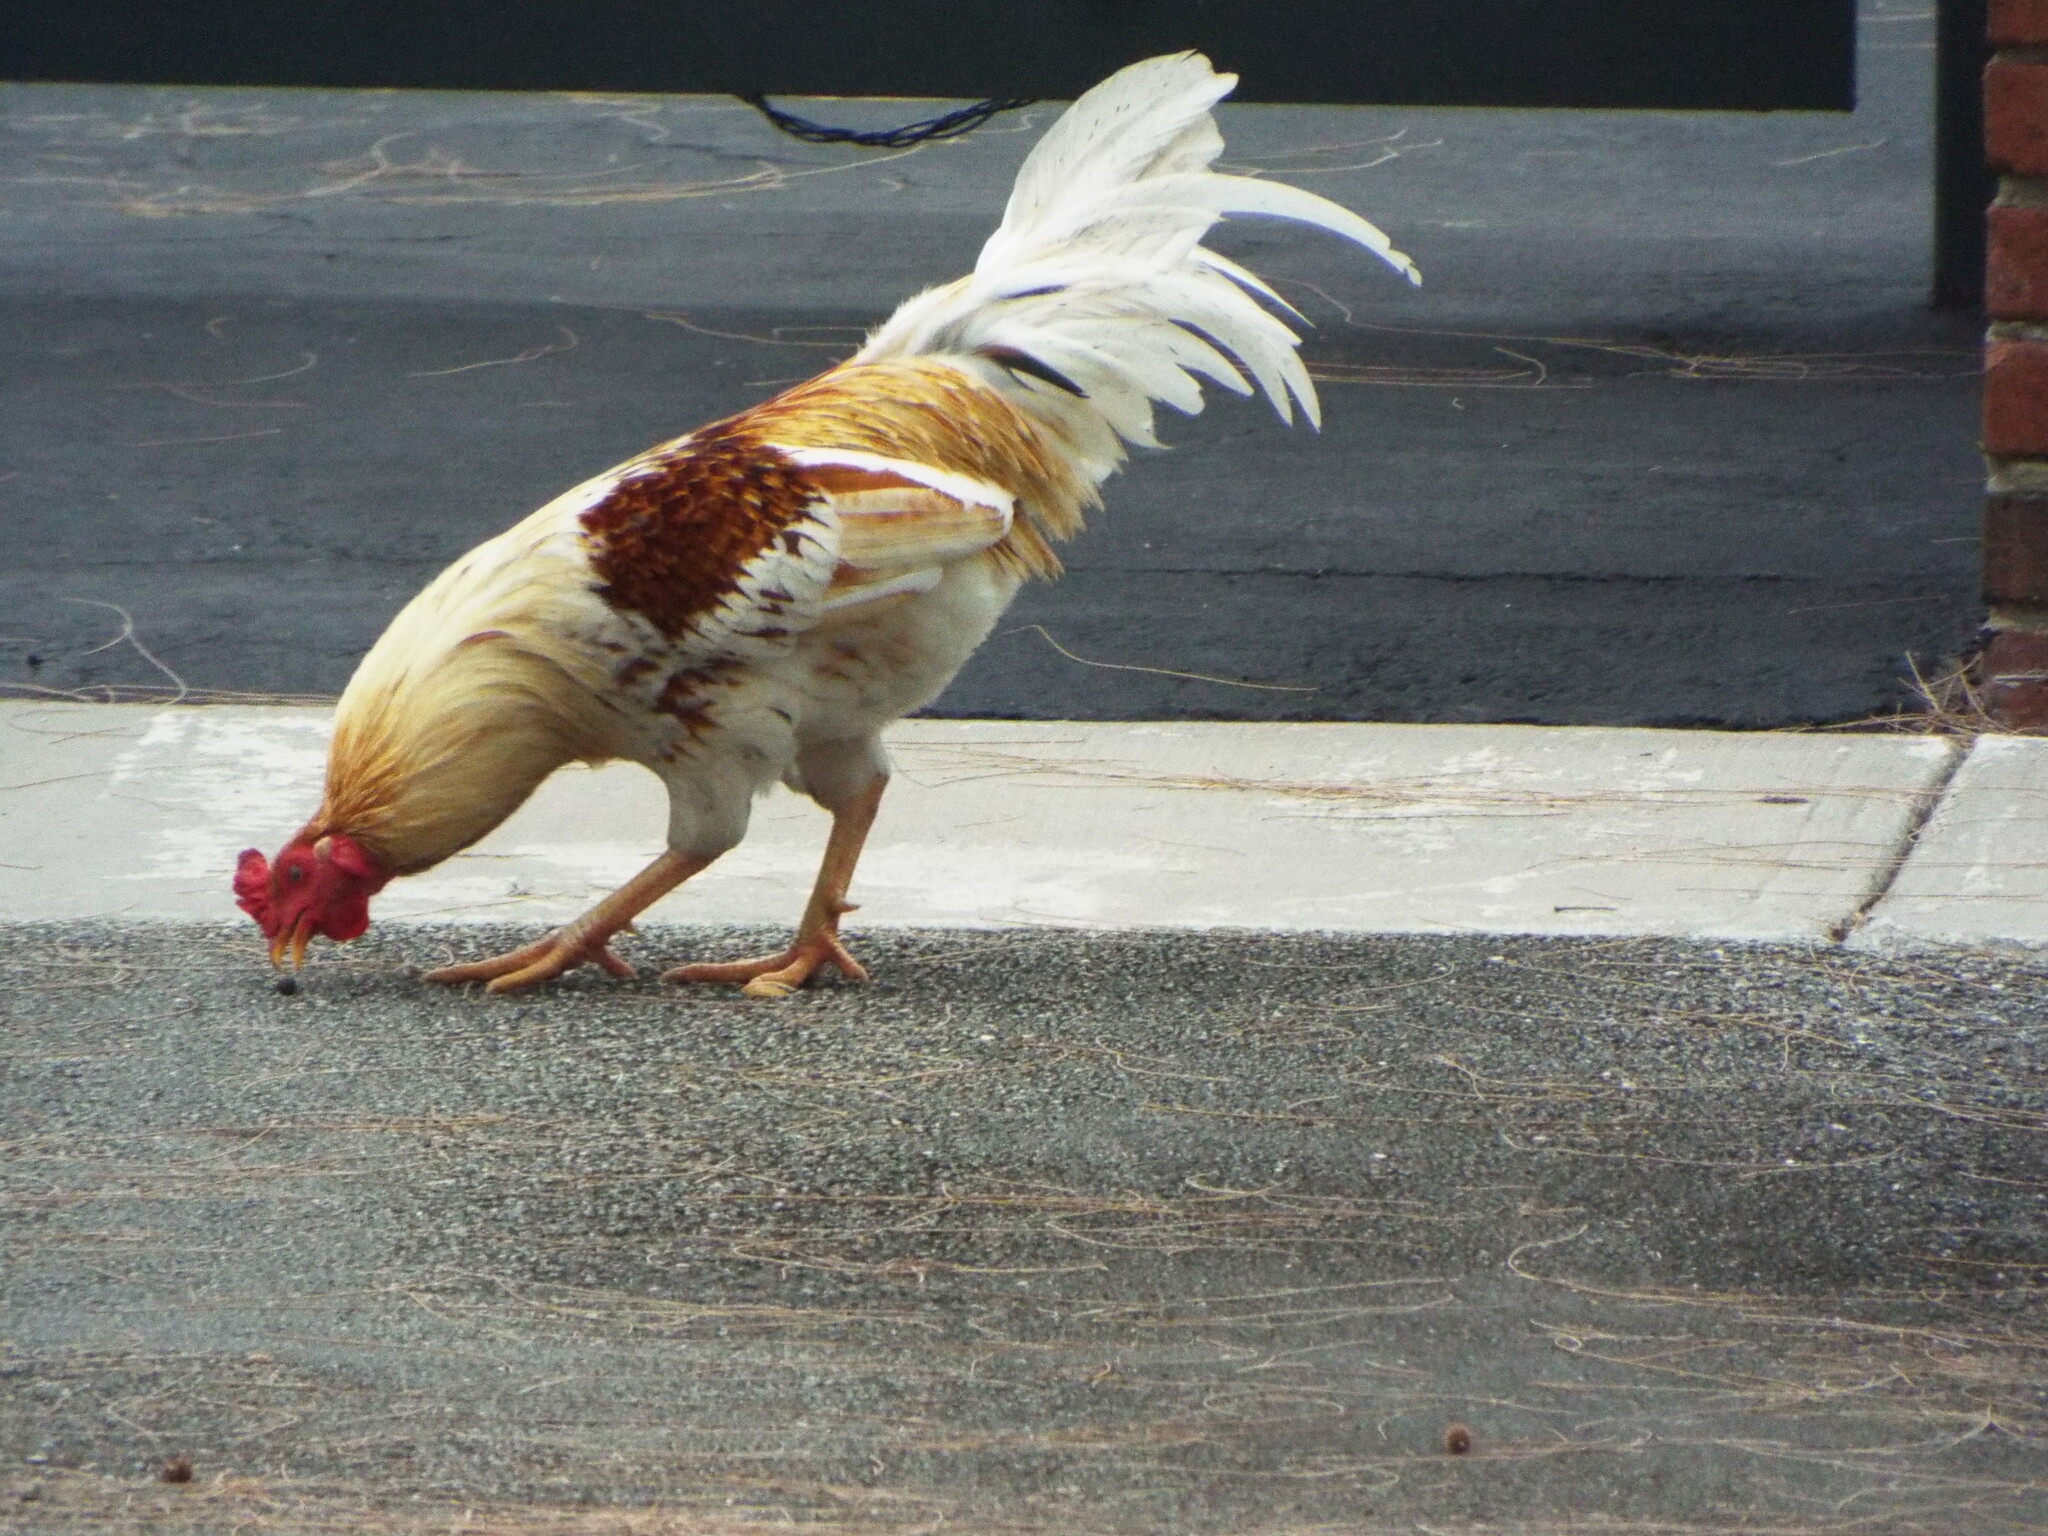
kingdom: Animalia
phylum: Chordata
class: Aves
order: Galliformes
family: Phasianidae
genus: Gallus
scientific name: Gallus gallus
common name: Red junglefowl
